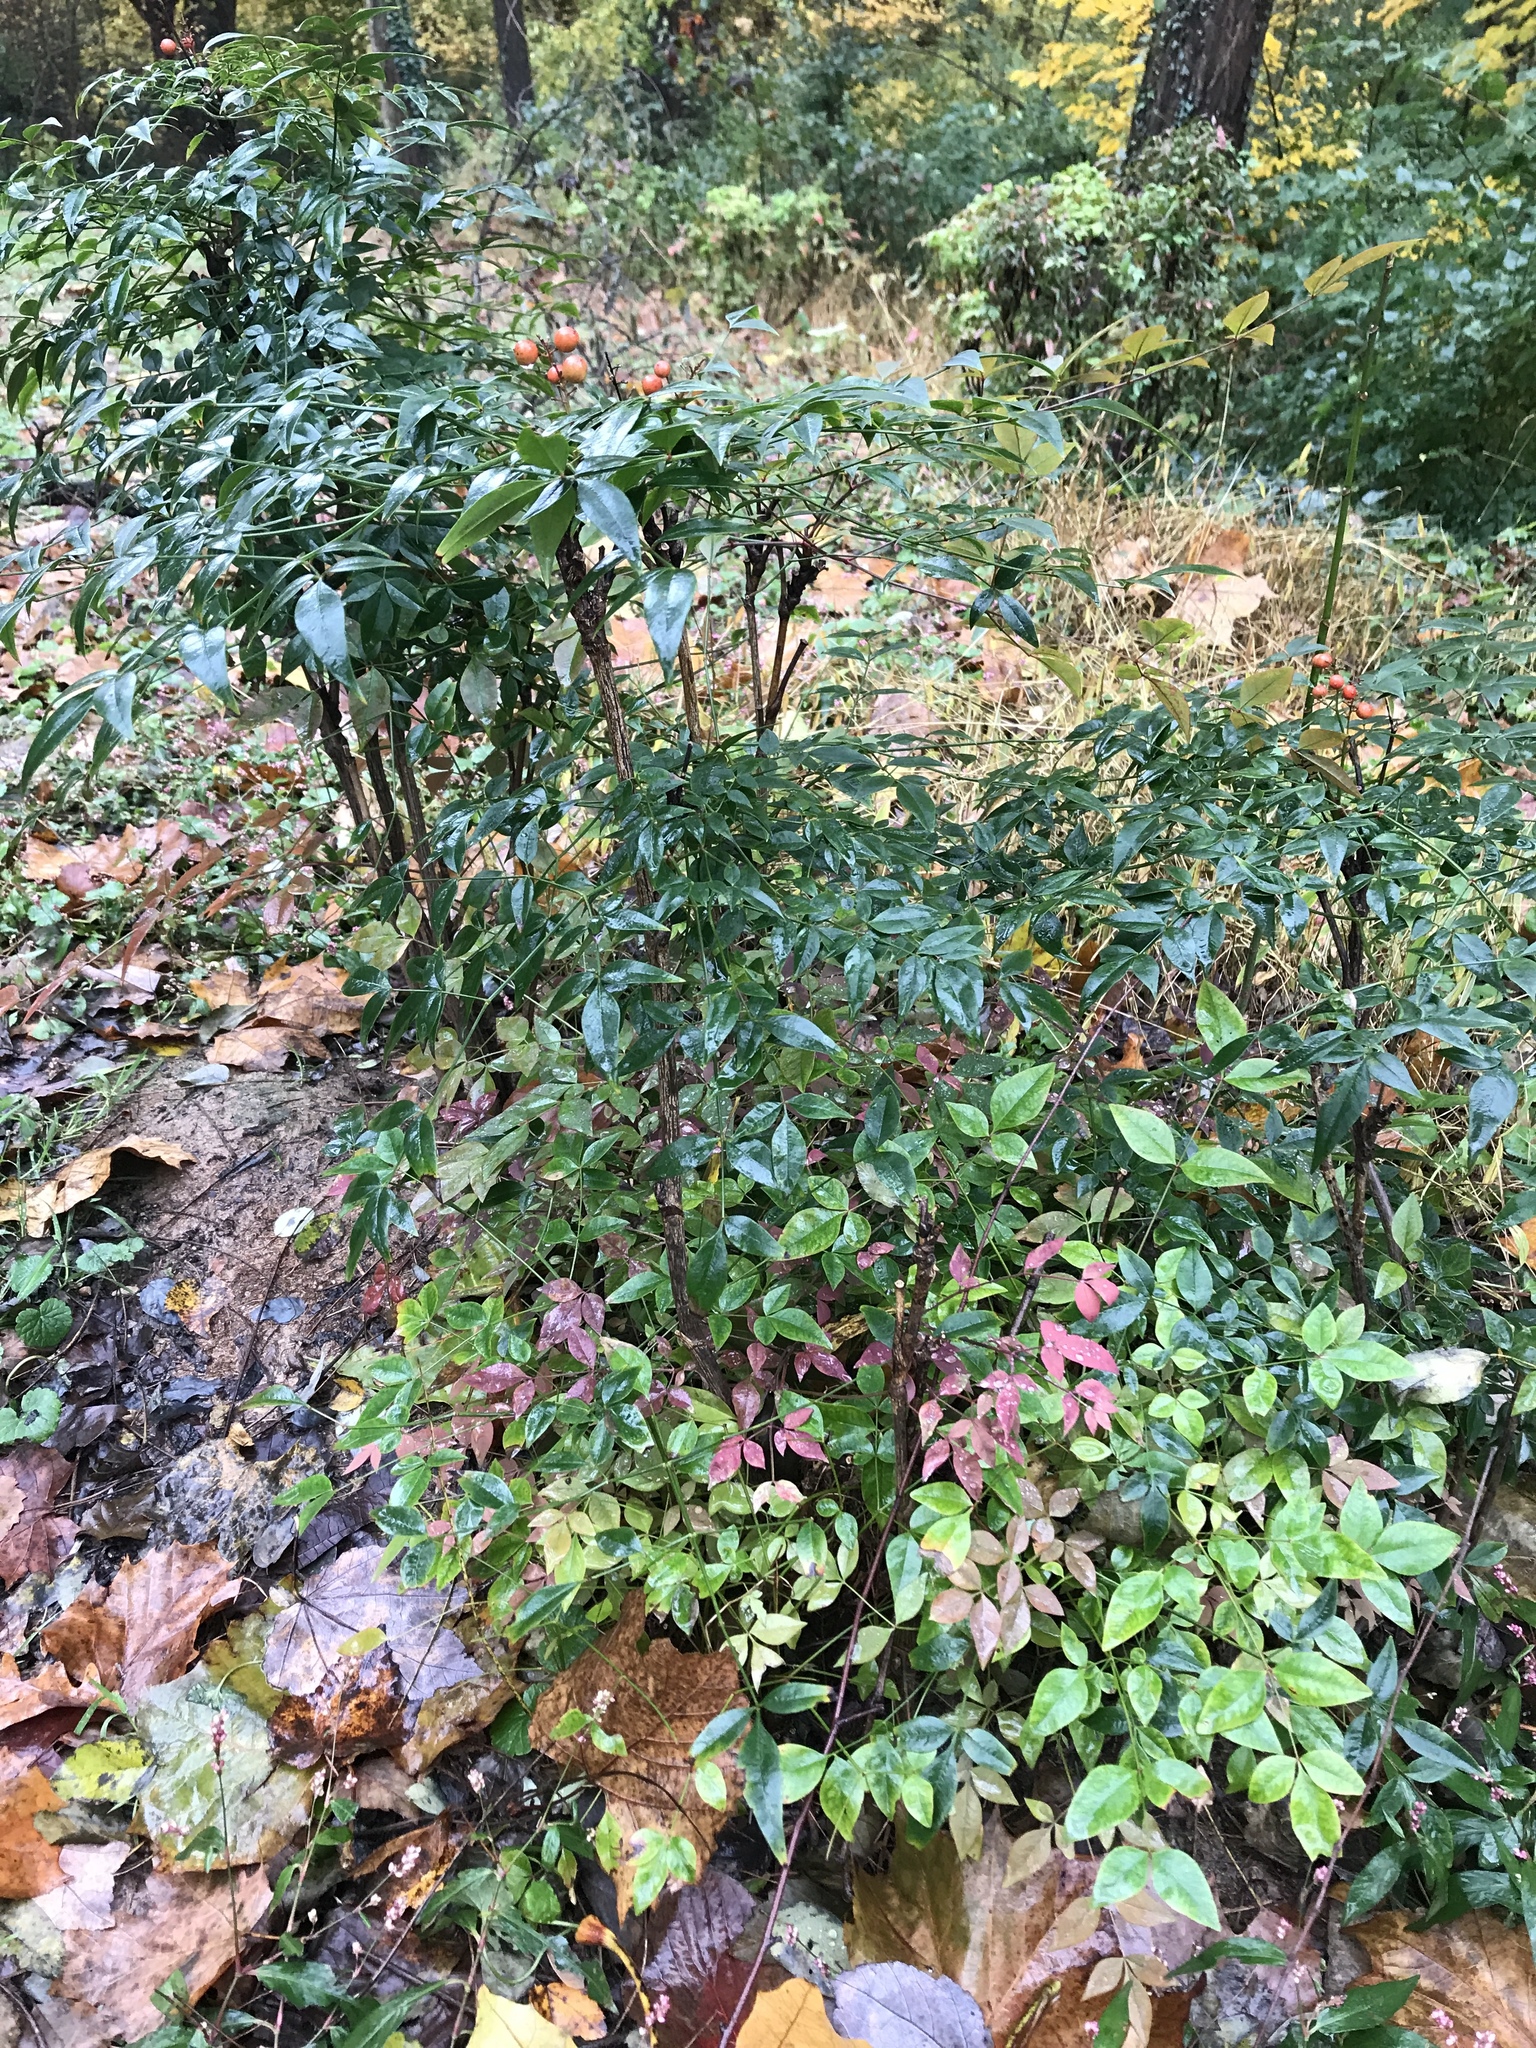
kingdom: Plantae
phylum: Tracheophyta
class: Magnoliopsida
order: Ranunculales
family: Berberidaceae
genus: Nandina
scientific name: Nandina domestica
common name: Sacred bamboo
